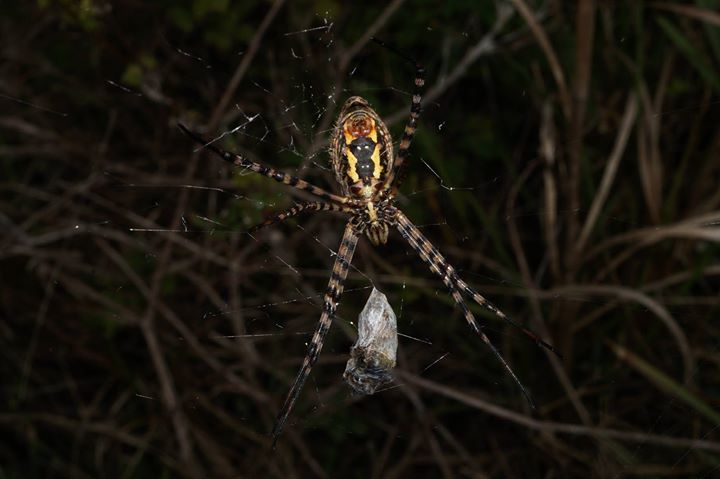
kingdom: Animalia
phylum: Arthropoda
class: Arachnida
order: Araneae
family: Araneidae
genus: Argiope
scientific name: Argiope trifasciata
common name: Banded garden spider
